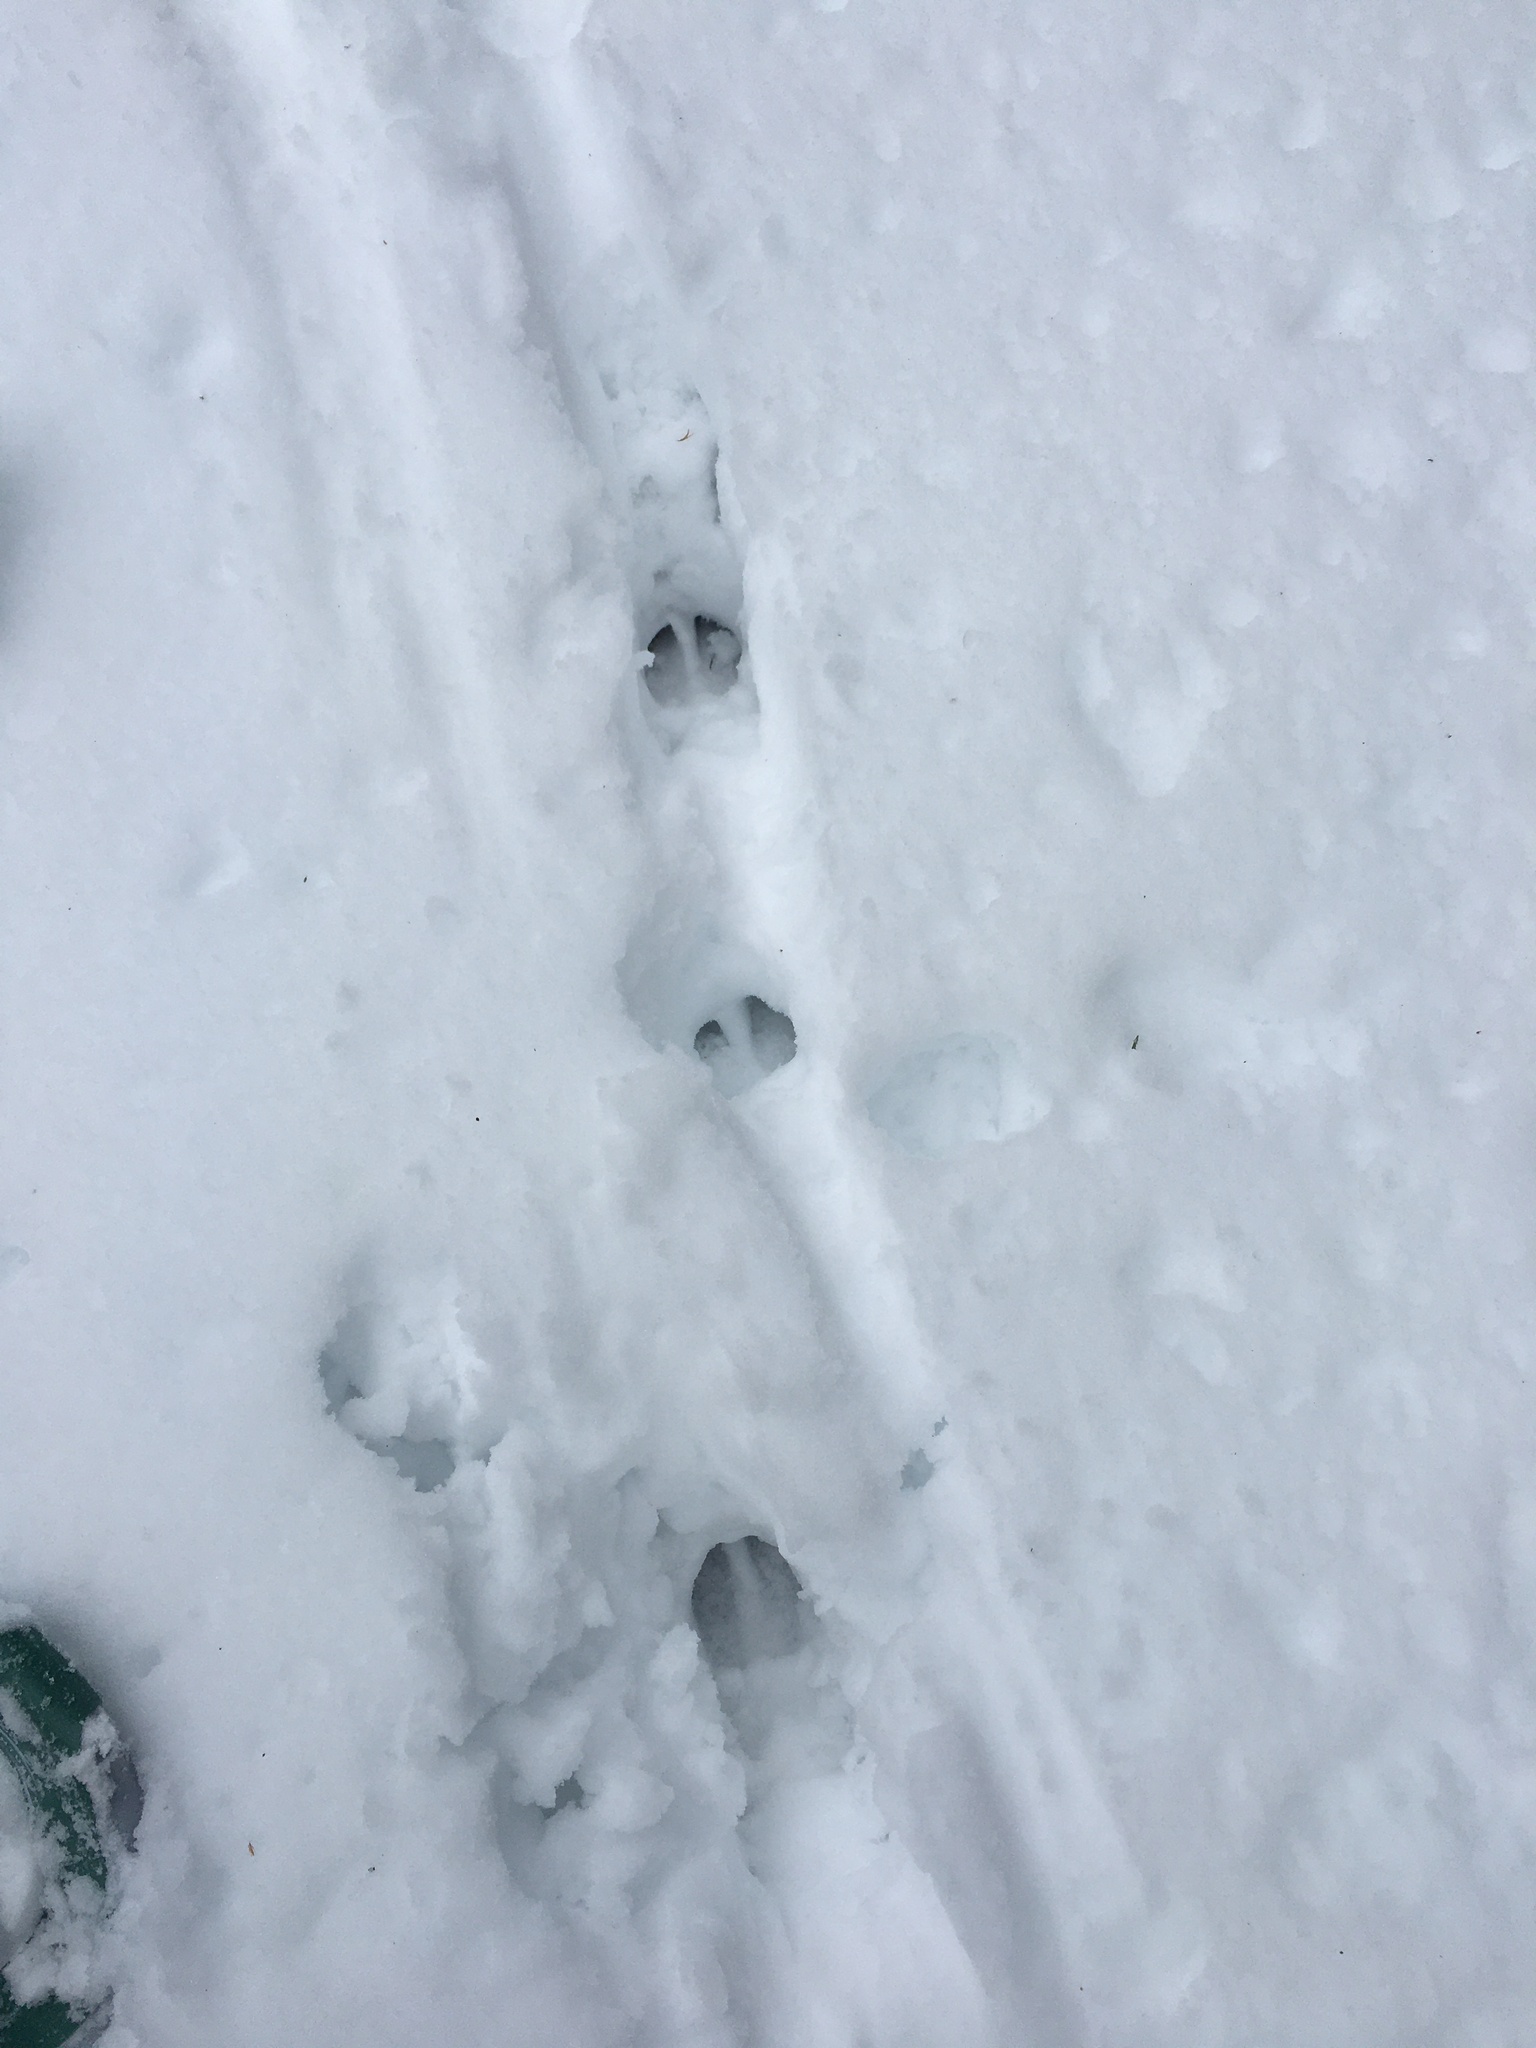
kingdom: Animalia
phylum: Chordata
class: Mammalia
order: Artiodactyla
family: Cervidae
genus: Odocoileus
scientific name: Odocoileus virginianus
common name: White-tailed deer
